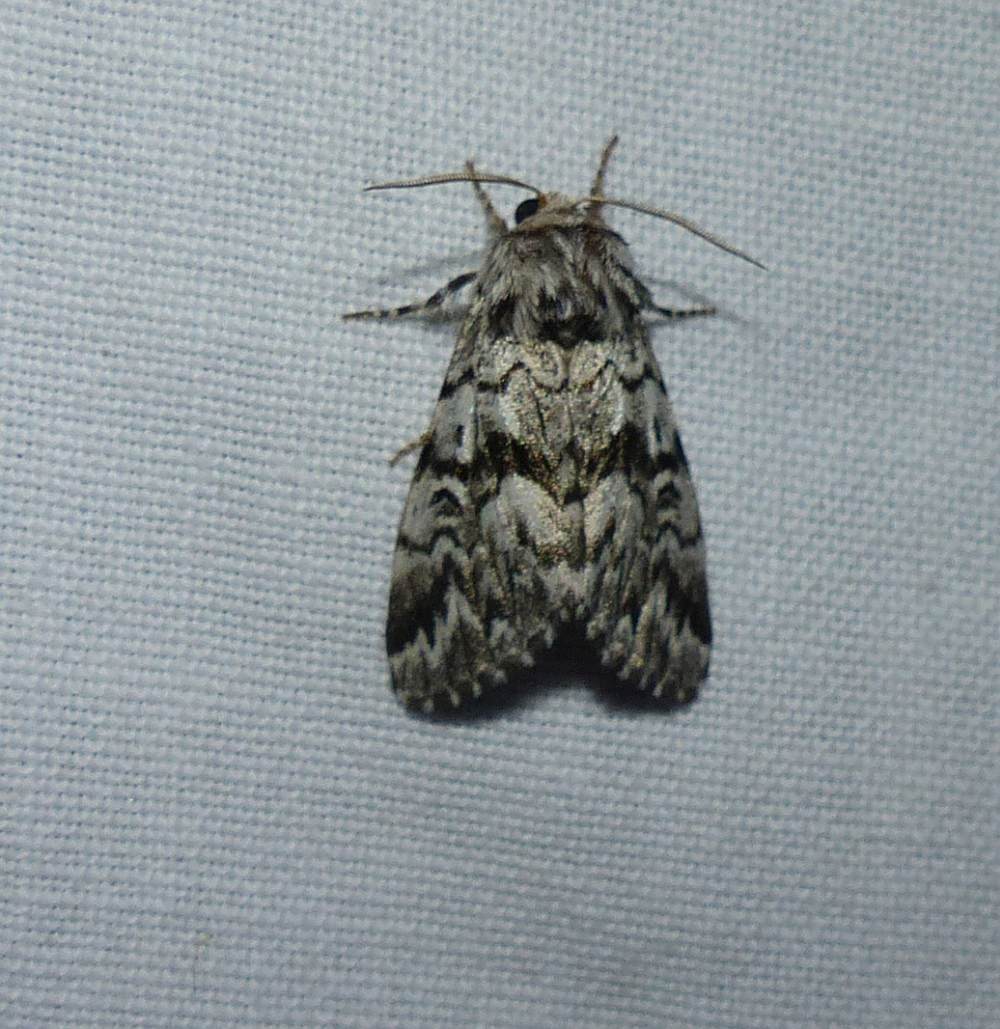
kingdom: Animalia
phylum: Arthropoda
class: Insecta
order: Lepidoptera
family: Noctuidae
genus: Panthea
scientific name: Panthea acronyctoides
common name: Black zigzag moth
